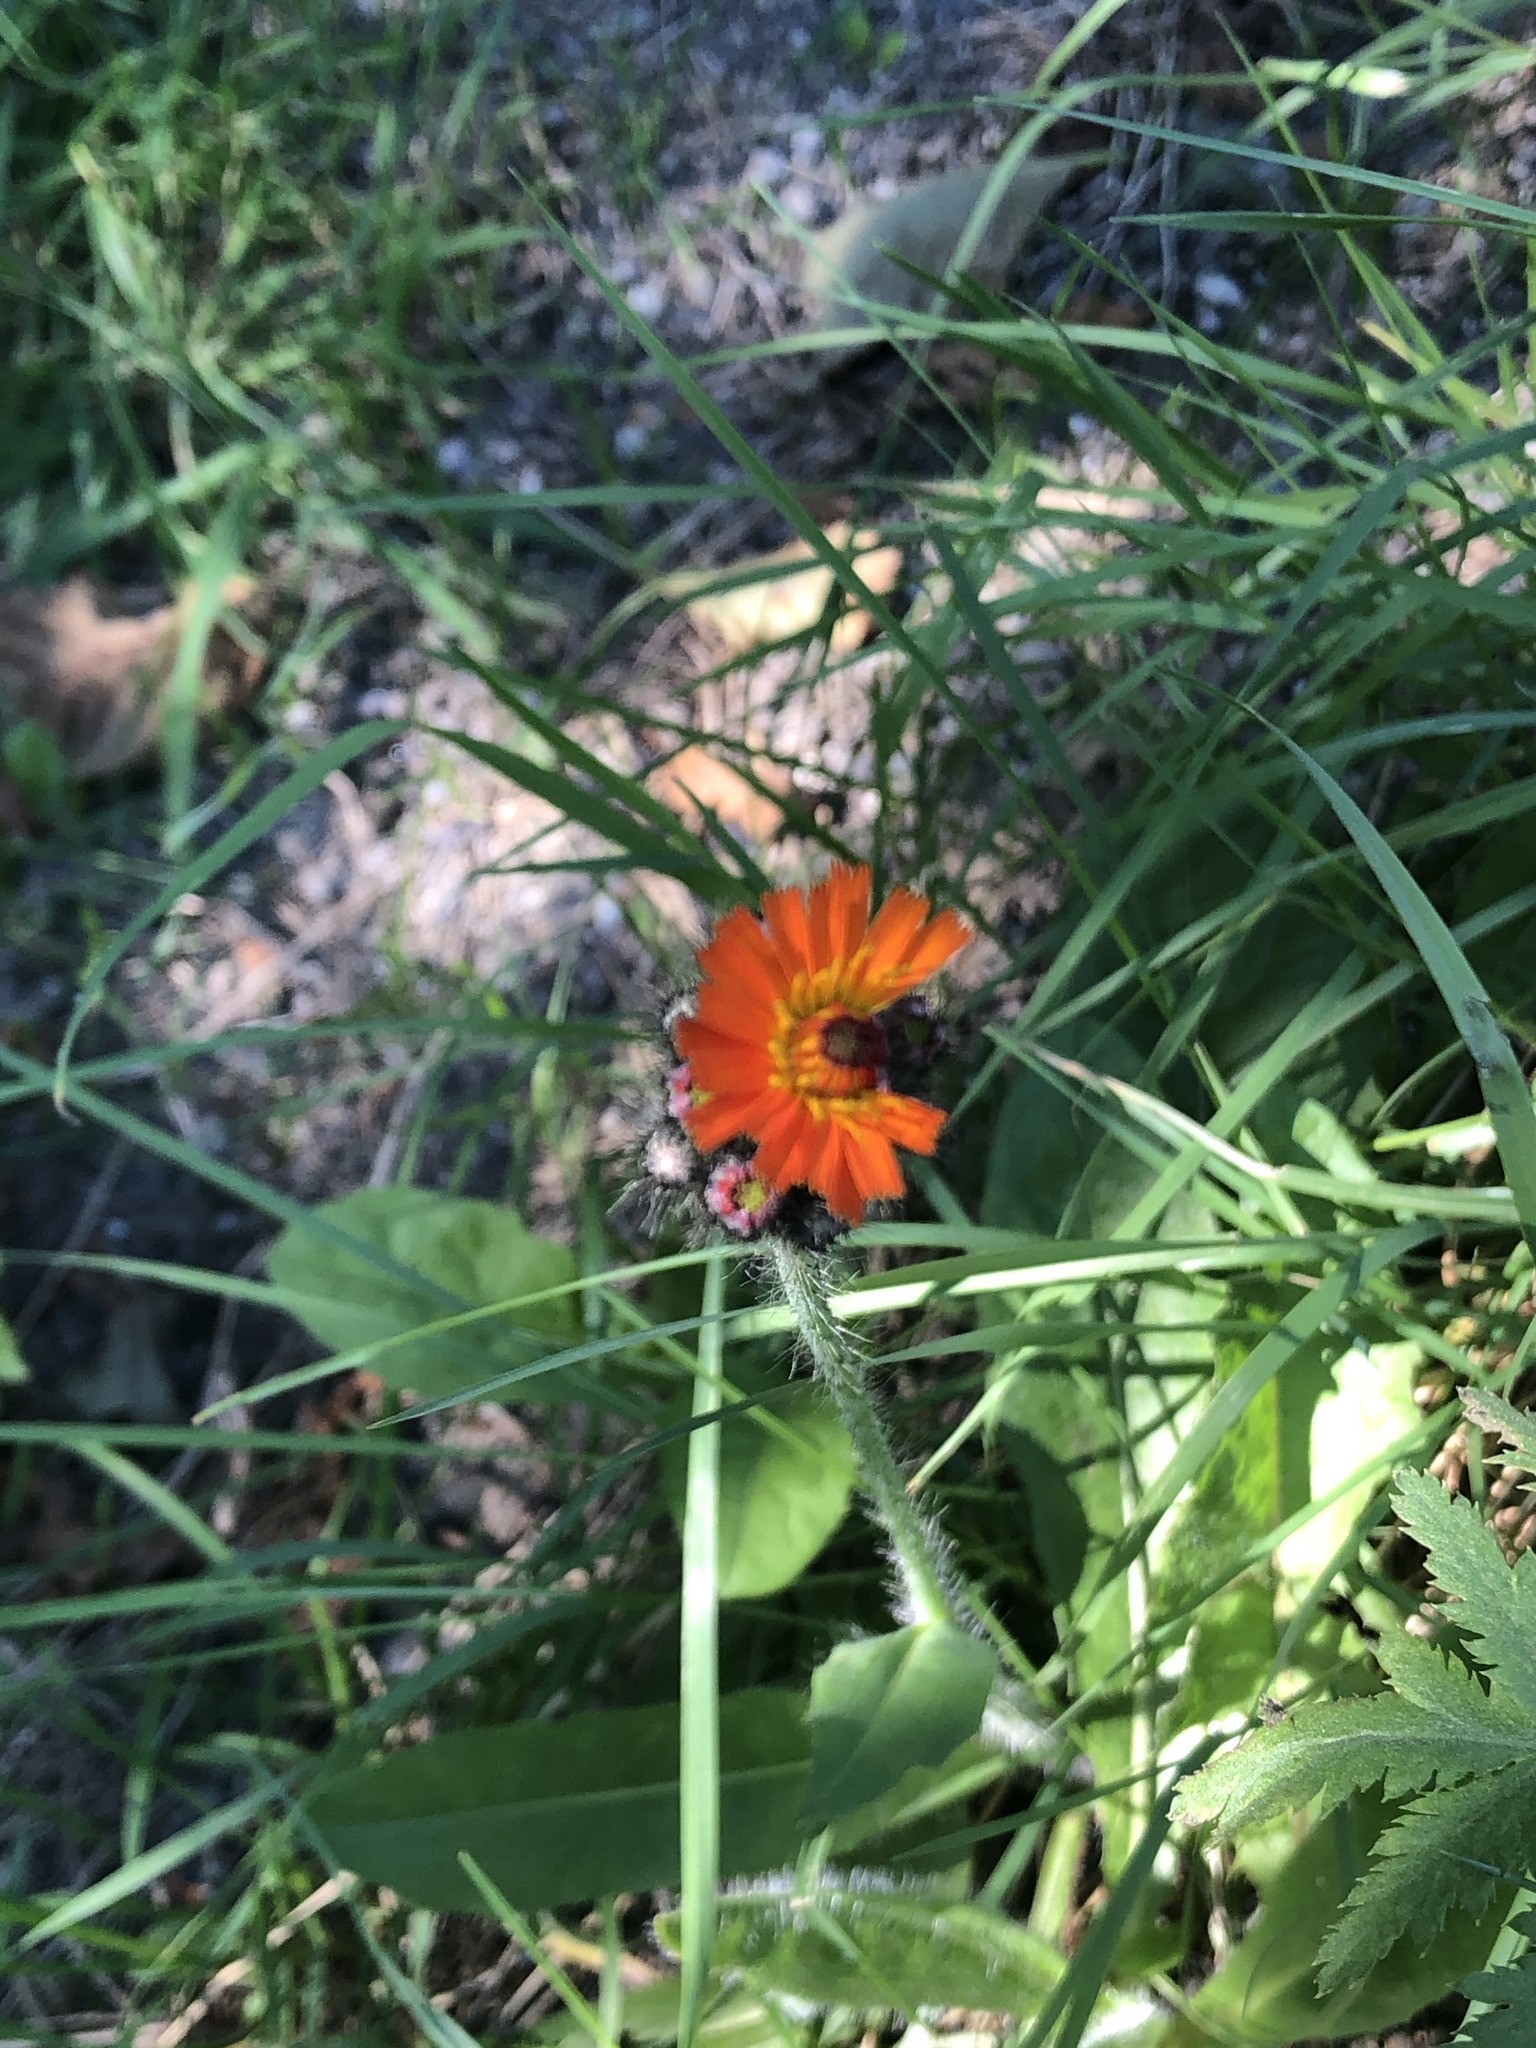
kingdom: Plantae
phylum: Tracheophyta
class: Magnoliopsida
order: Asterales
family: Asteraceae
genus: Pilosella
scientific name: Pilosella aurantiaca
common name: Fox-and-cubs
